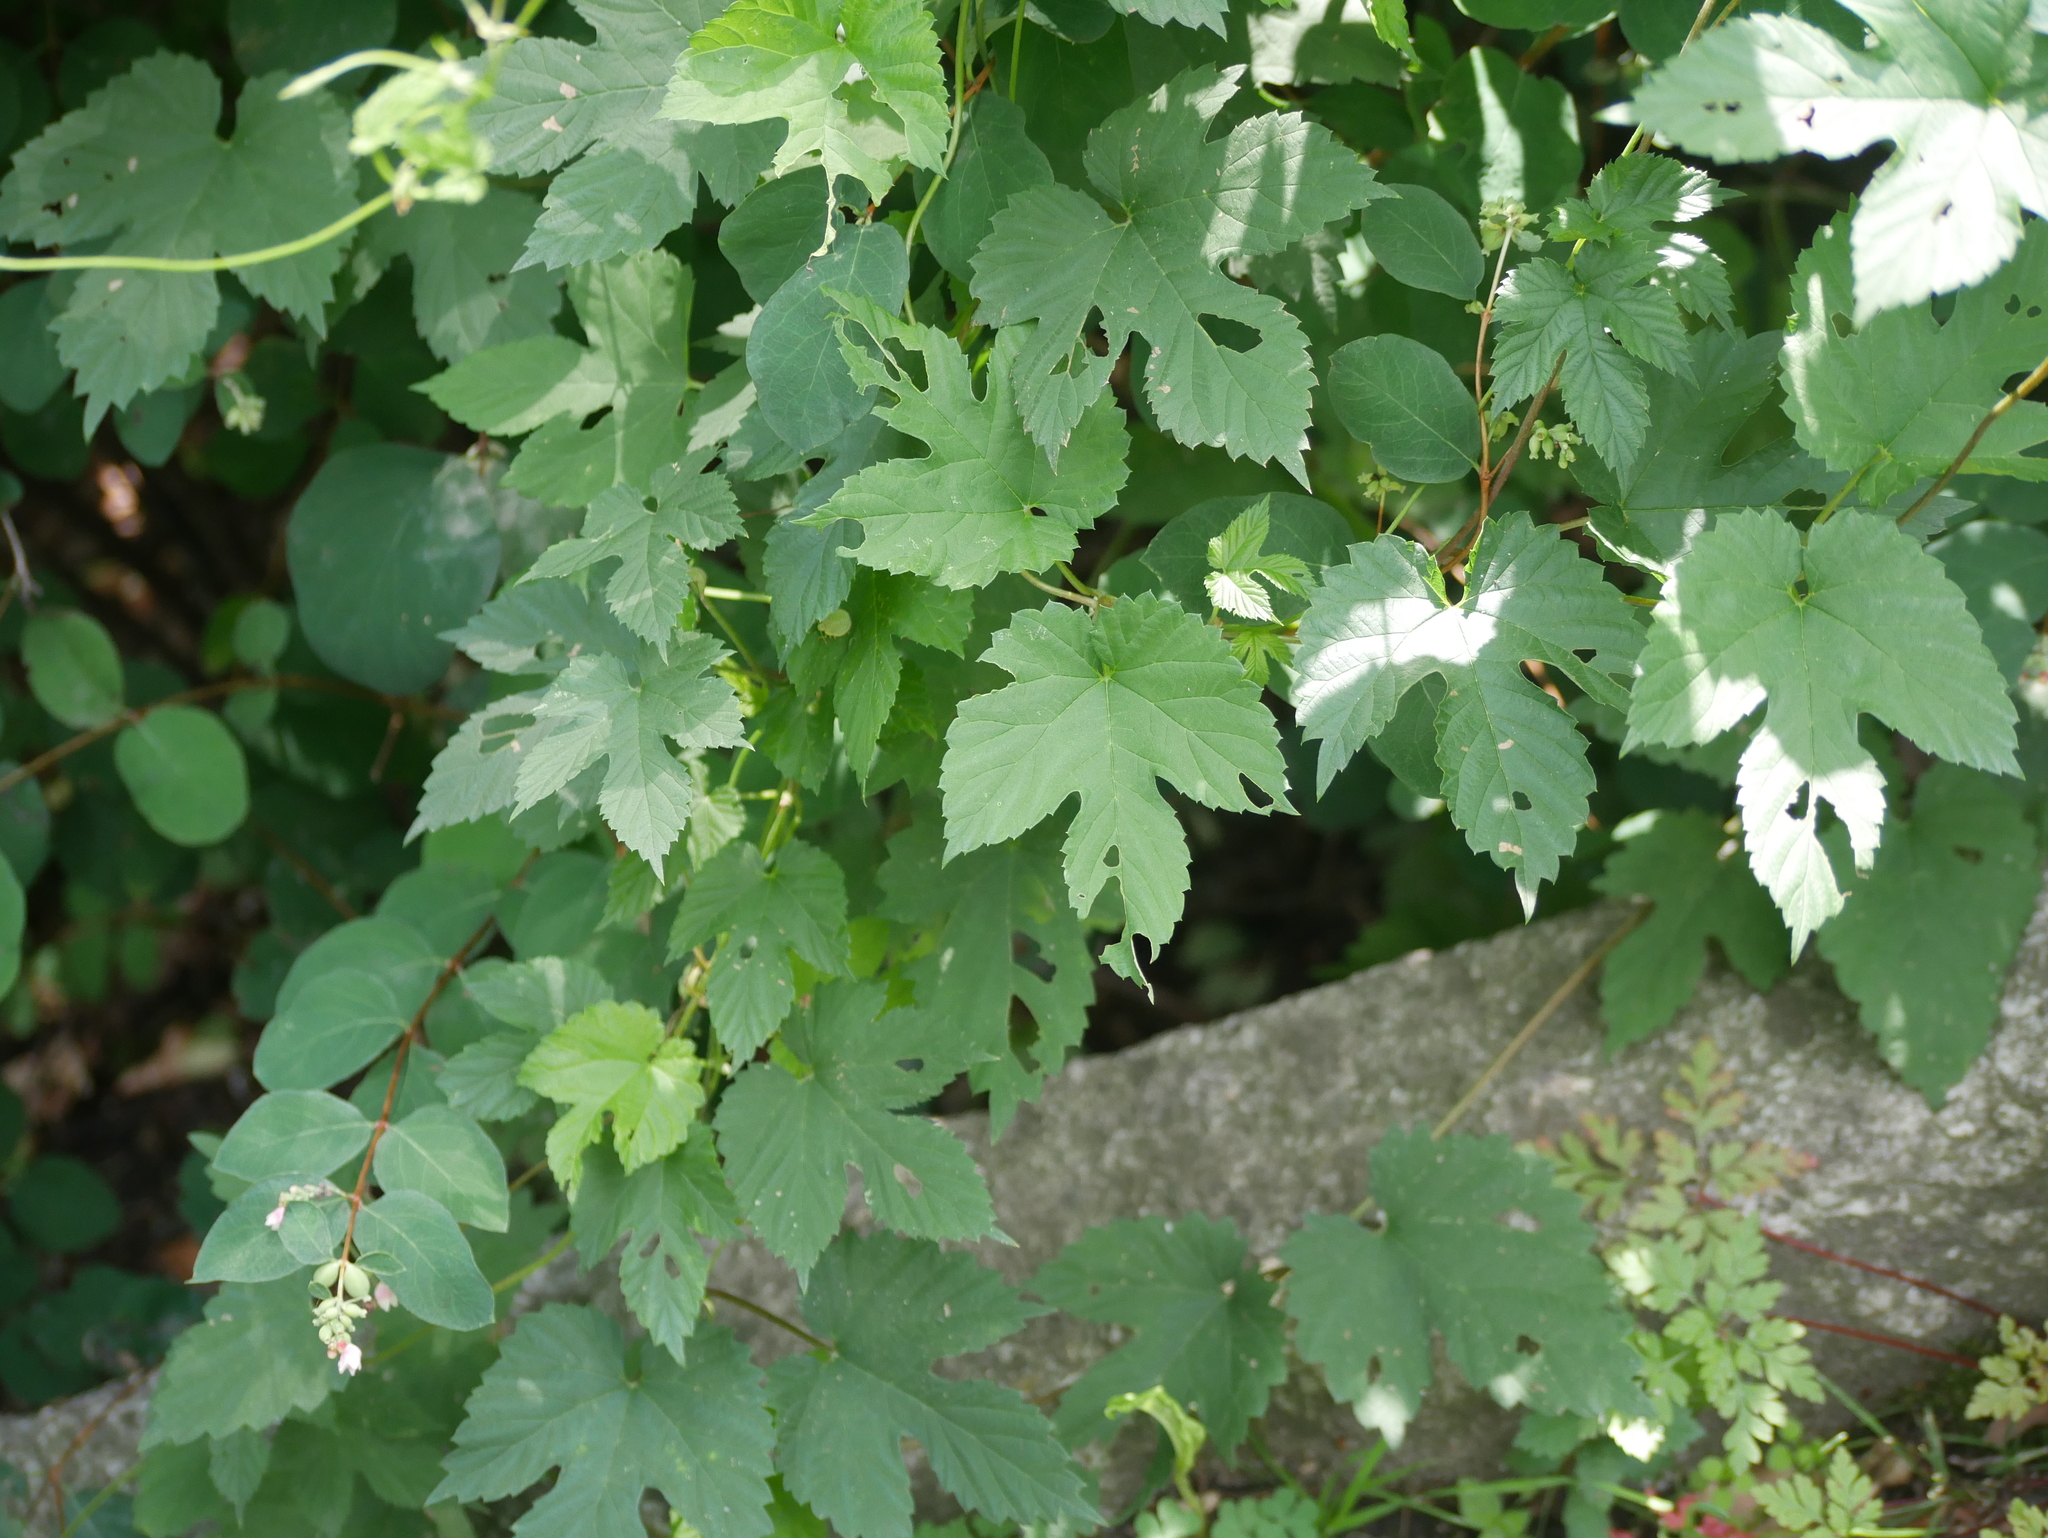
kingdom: Plantae
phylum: Tracheophyta
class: Magnoliopsida
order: Rosales
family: Cannabaceae
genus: Humulus
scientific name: Humulus lupulus
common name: Hop
